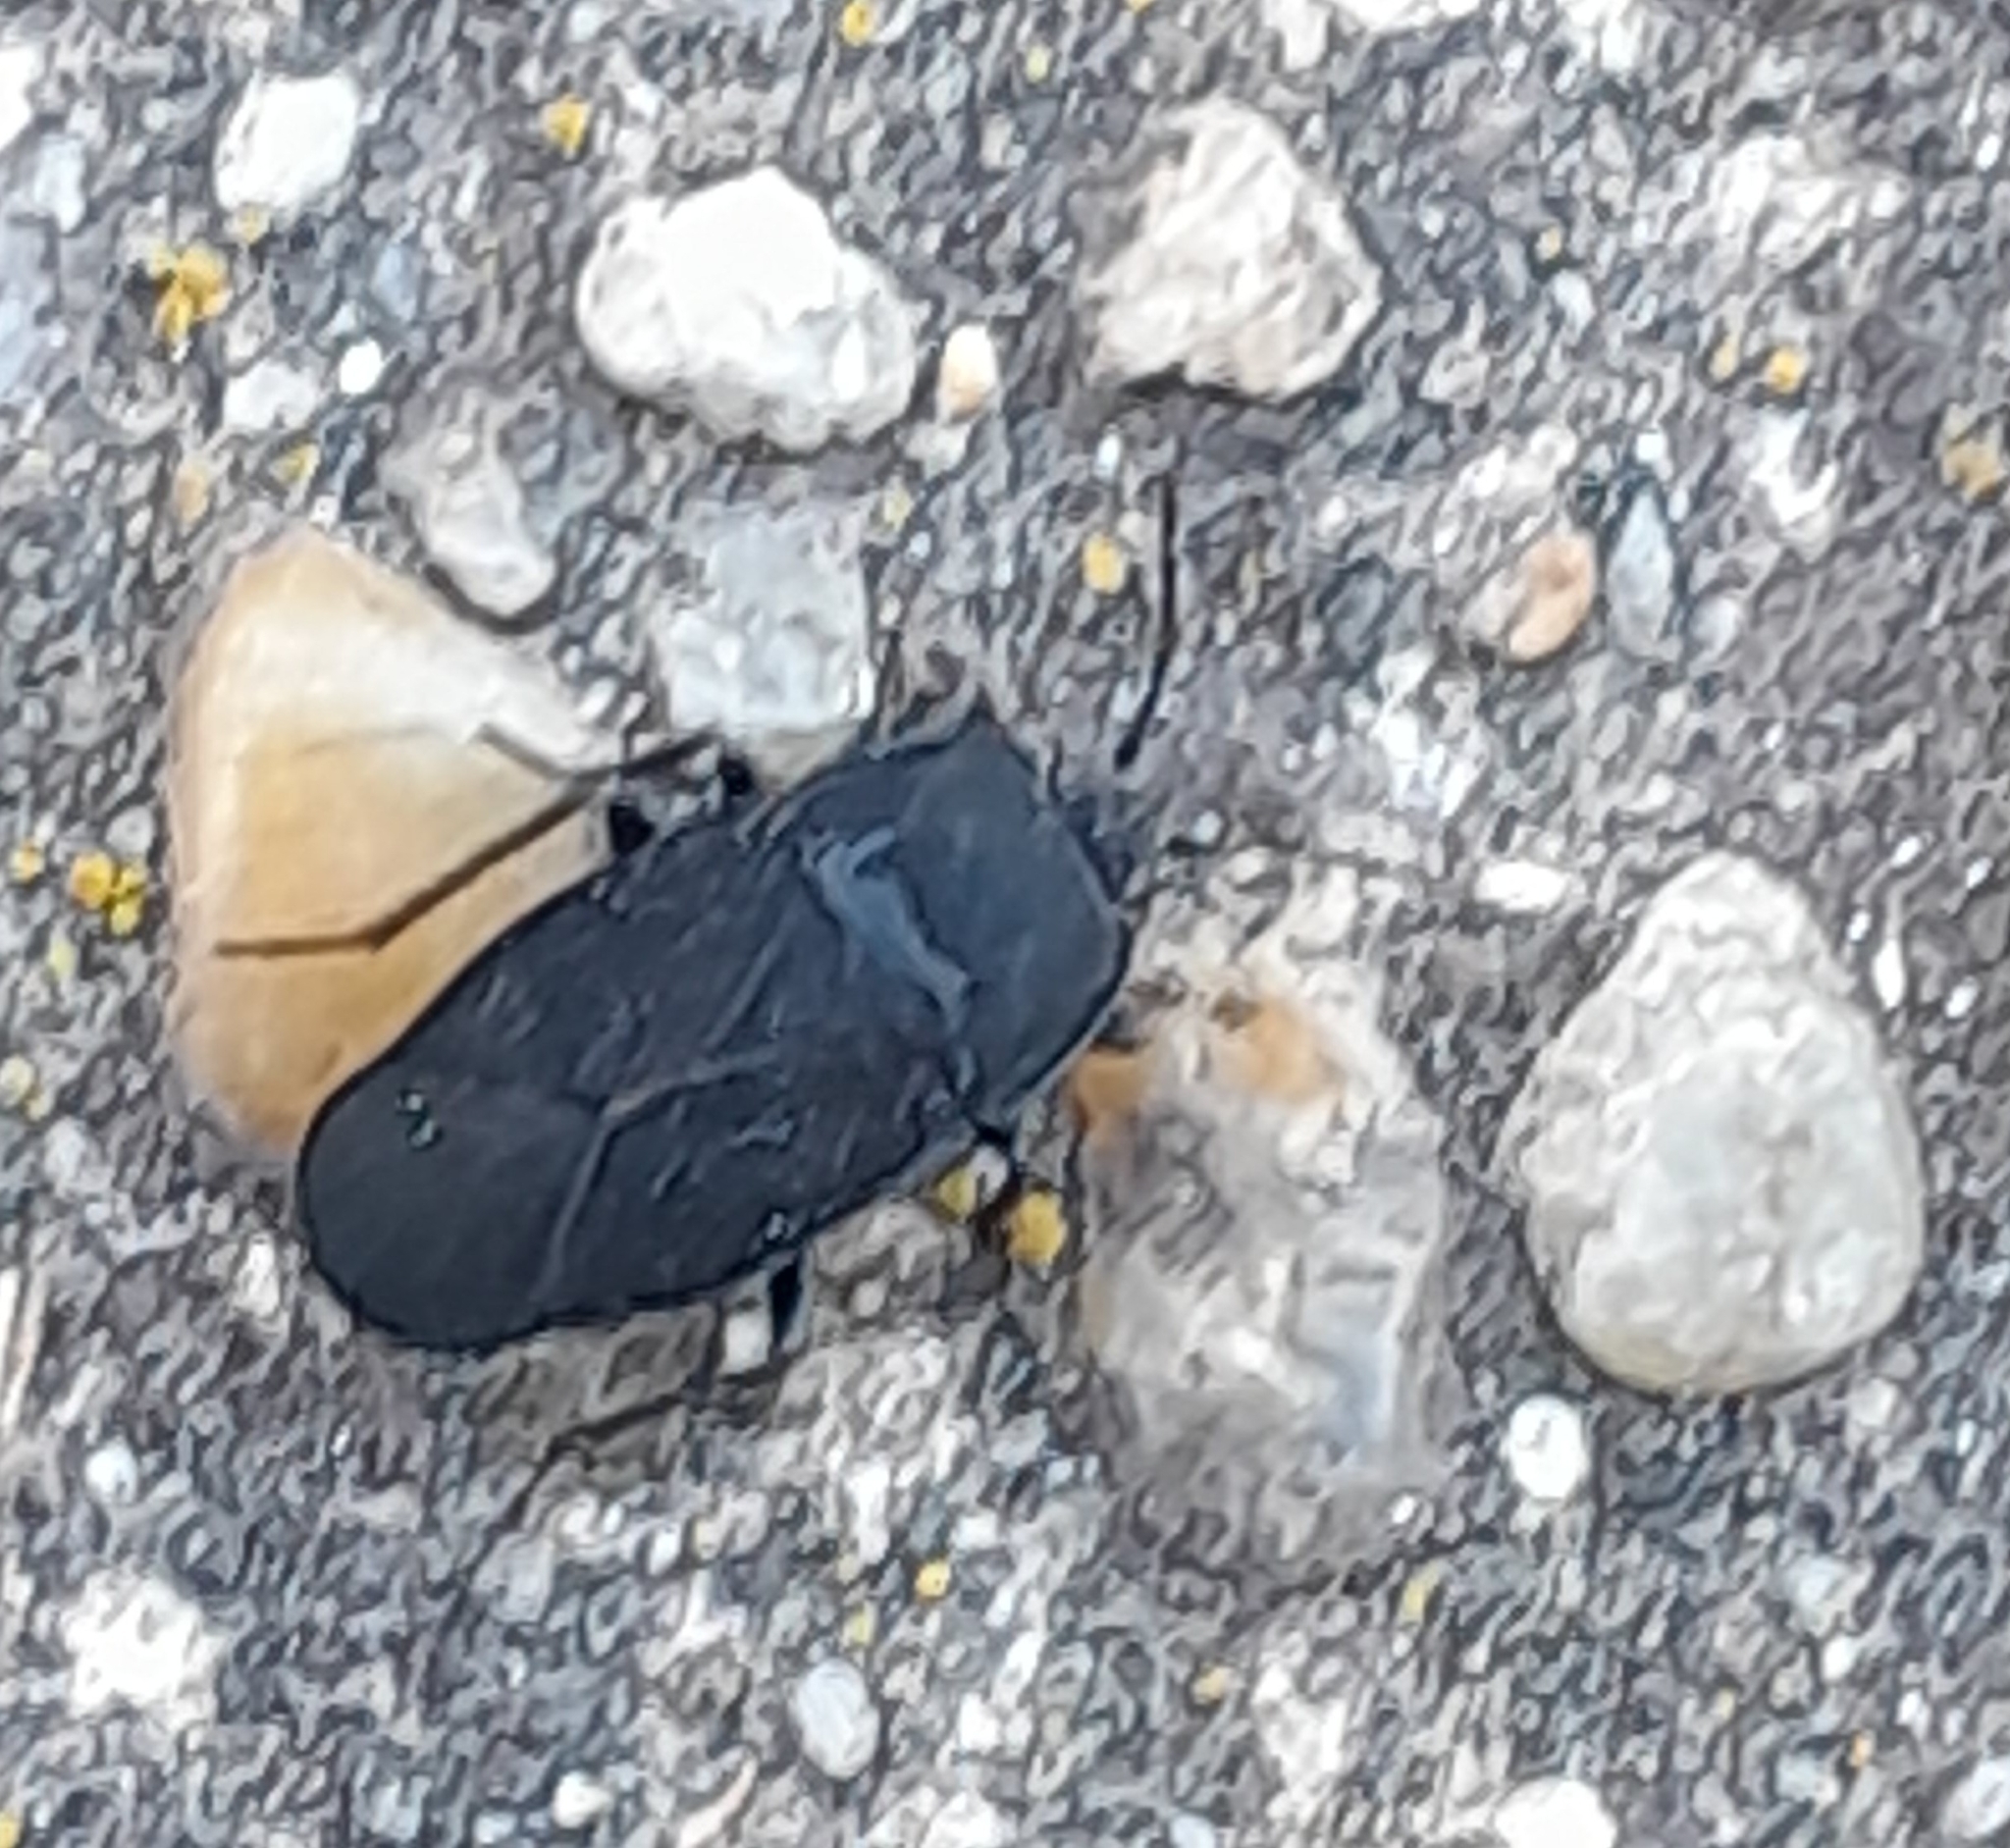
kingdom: Animalia
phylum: Arthropoda
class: Insecta
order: Hemiptera
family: Rhyparochromidae
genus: Aellopus
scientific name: Aellopus atratus
